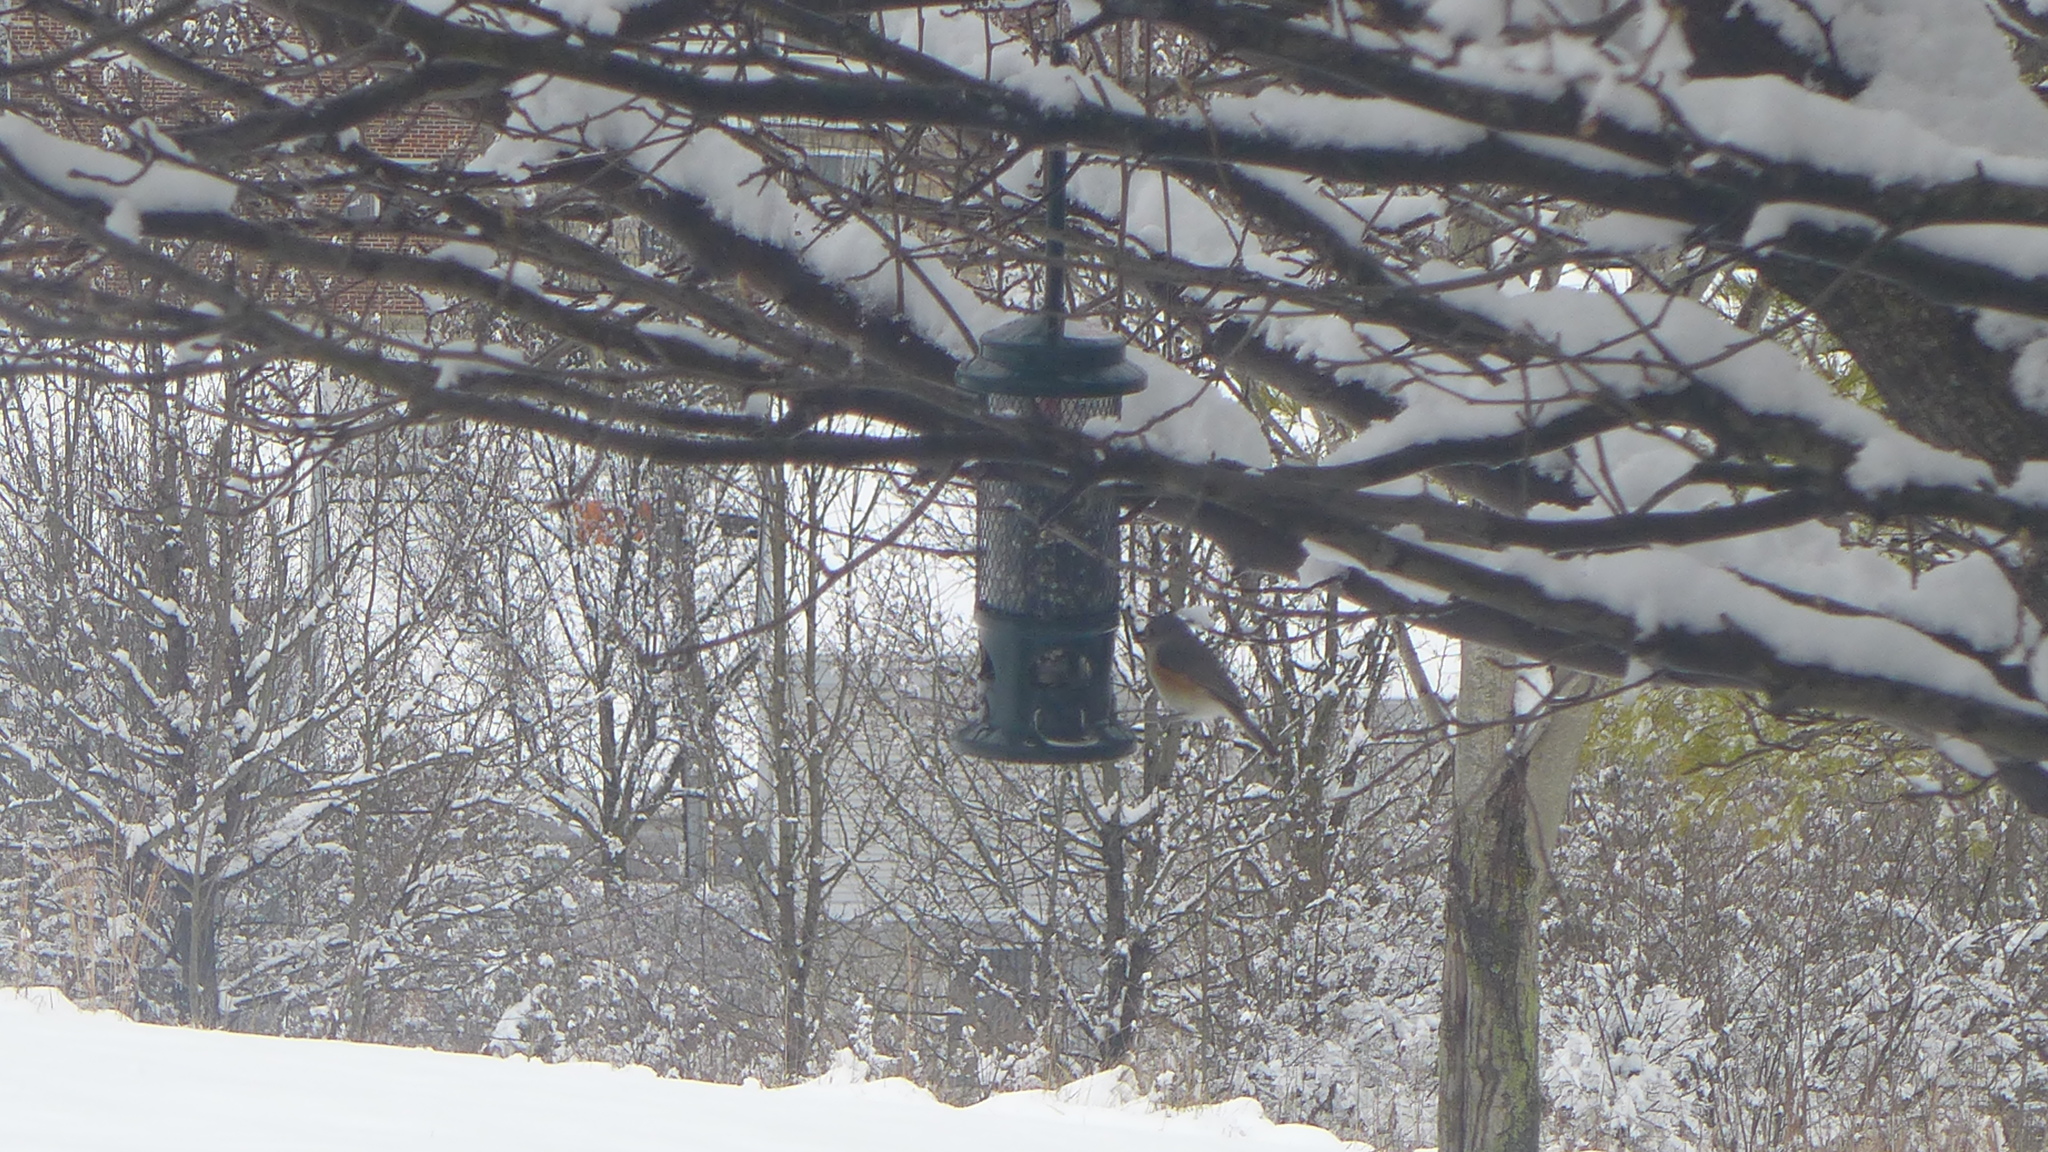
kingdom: Animalia
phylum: Chordata
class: Aves
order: Passeriformes
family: Paridae
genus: Baeolophus
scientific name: Baeolophus bicolor
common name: Tufted titmouse
